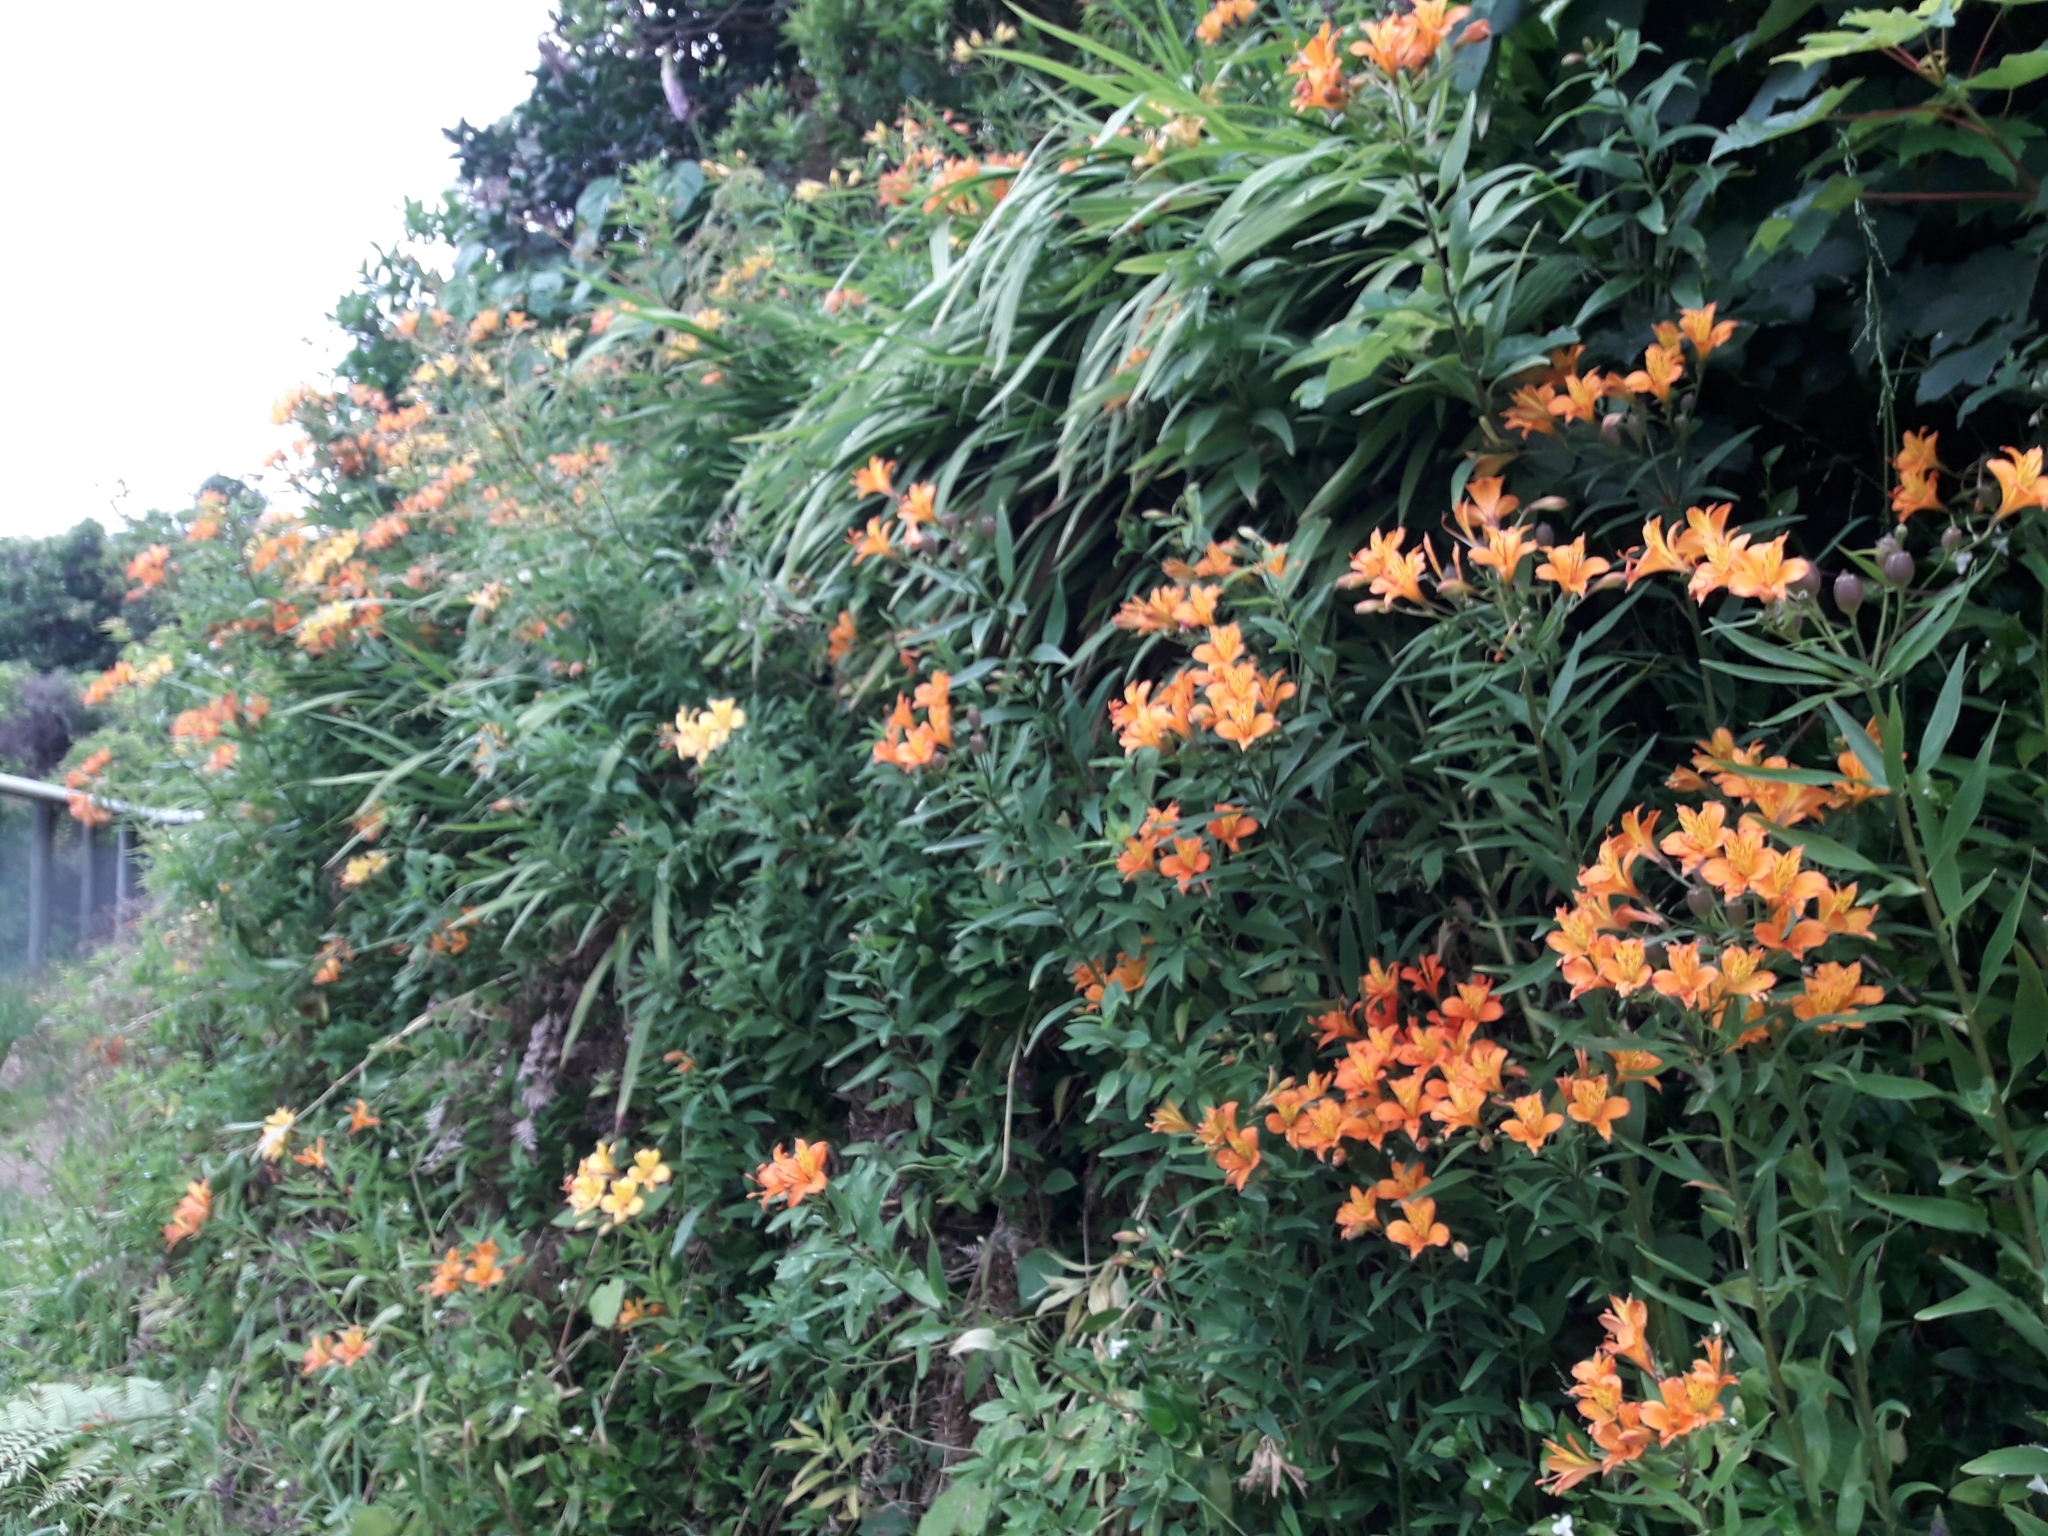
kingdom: Plantae
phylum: Tracheophyta
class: Liliopsida
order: Liliales
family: Alstroemeriaceae
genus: Alstroemeria
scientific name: Alstroemeria aurea
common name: Peruvian lily
